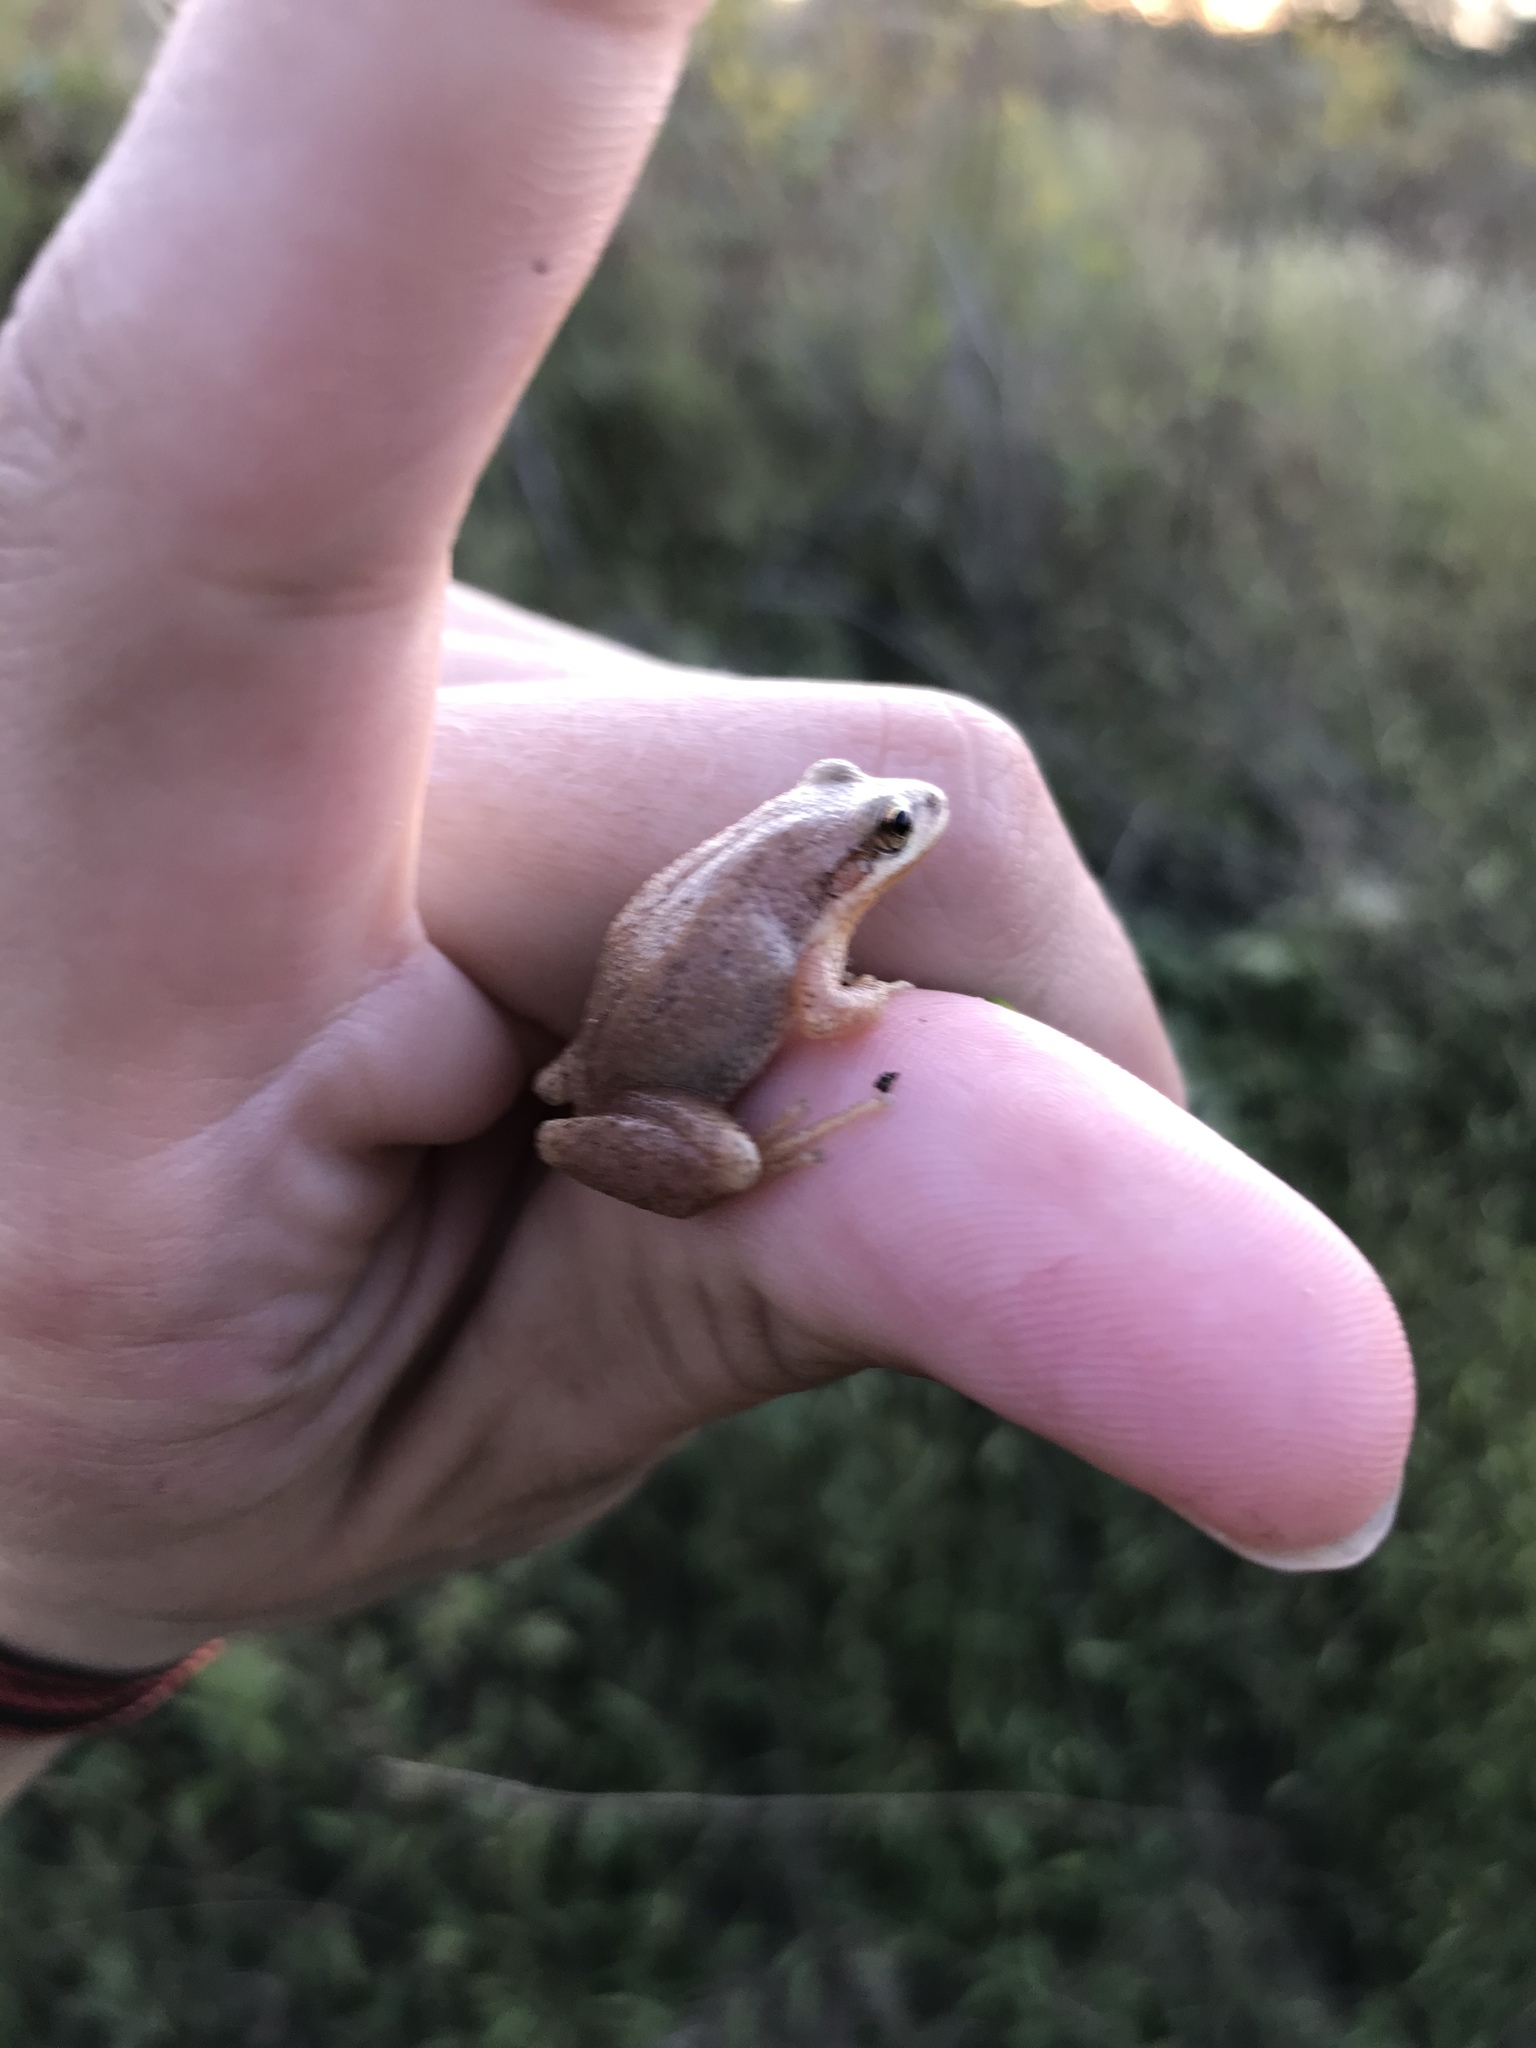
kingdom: Animalia
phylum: Chordata
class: Amphibia
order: Anura
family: Hylidae
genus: Pseudacris
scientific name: Pseudacris feriarum
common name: Upland chorus frog
